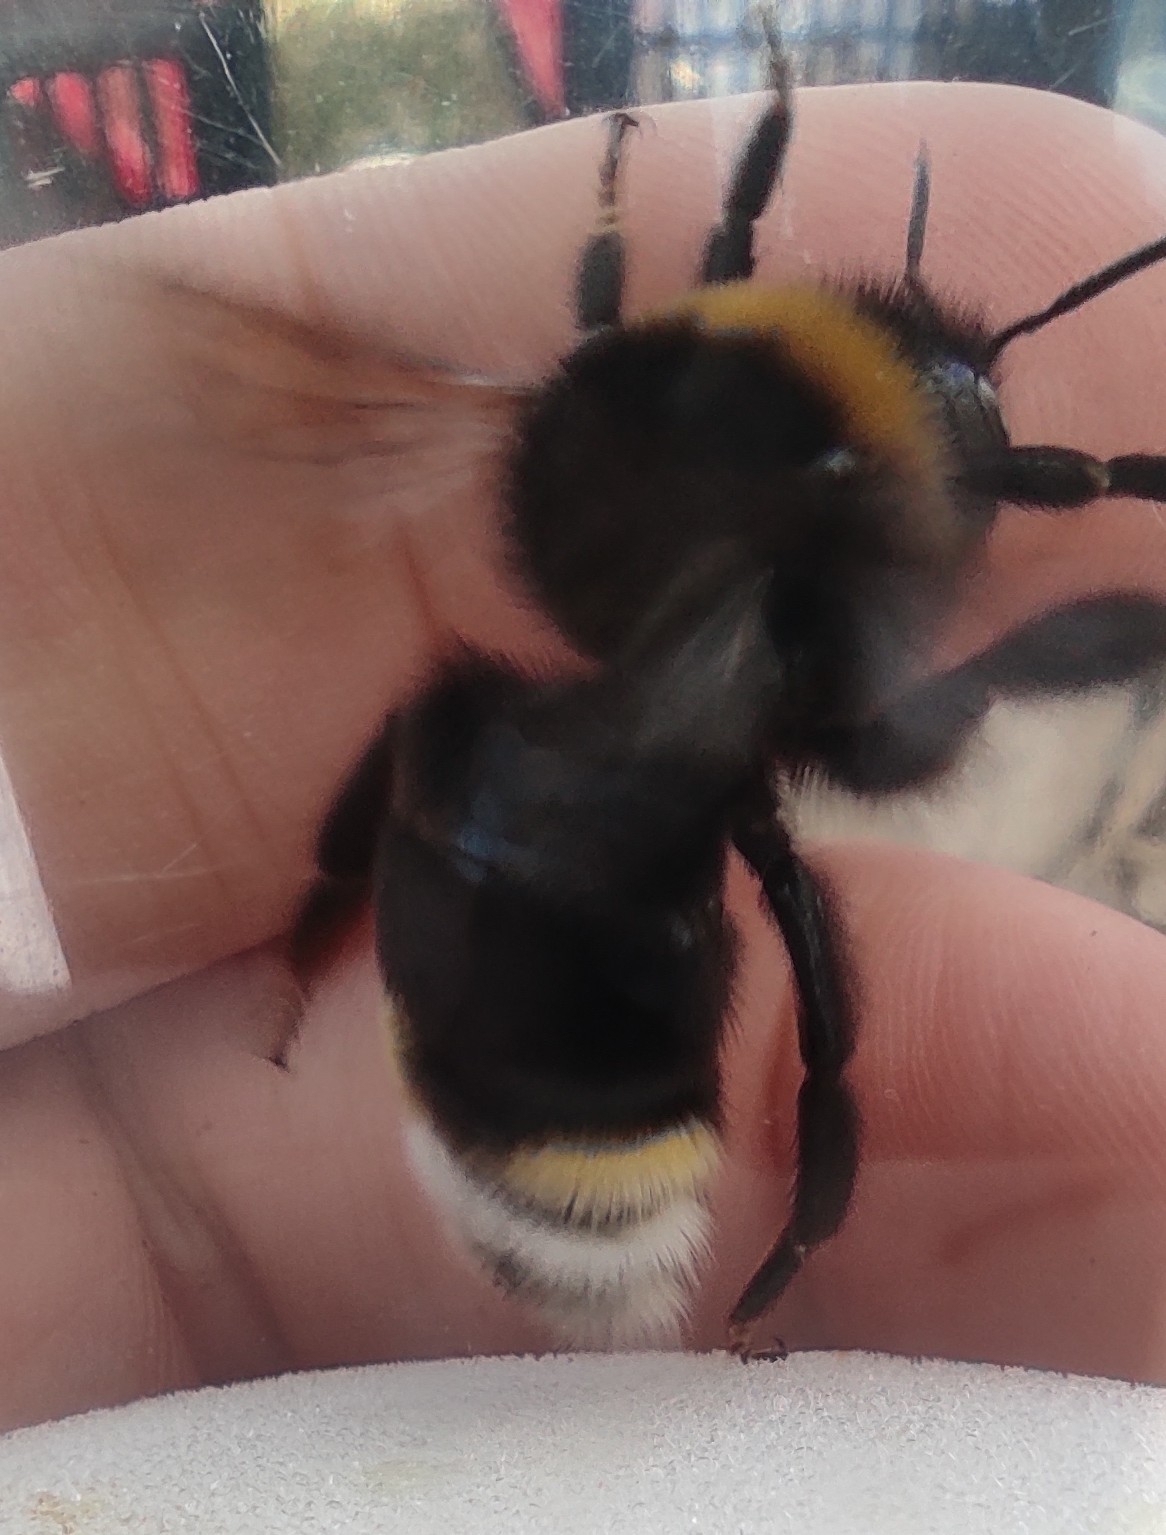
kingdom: Animalia
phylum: Arthropoda
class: Insecta
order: Hymenoptera
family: Apidae
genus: Bombus
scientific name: Bombus vestalis
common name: Vestal cuckoo bee
